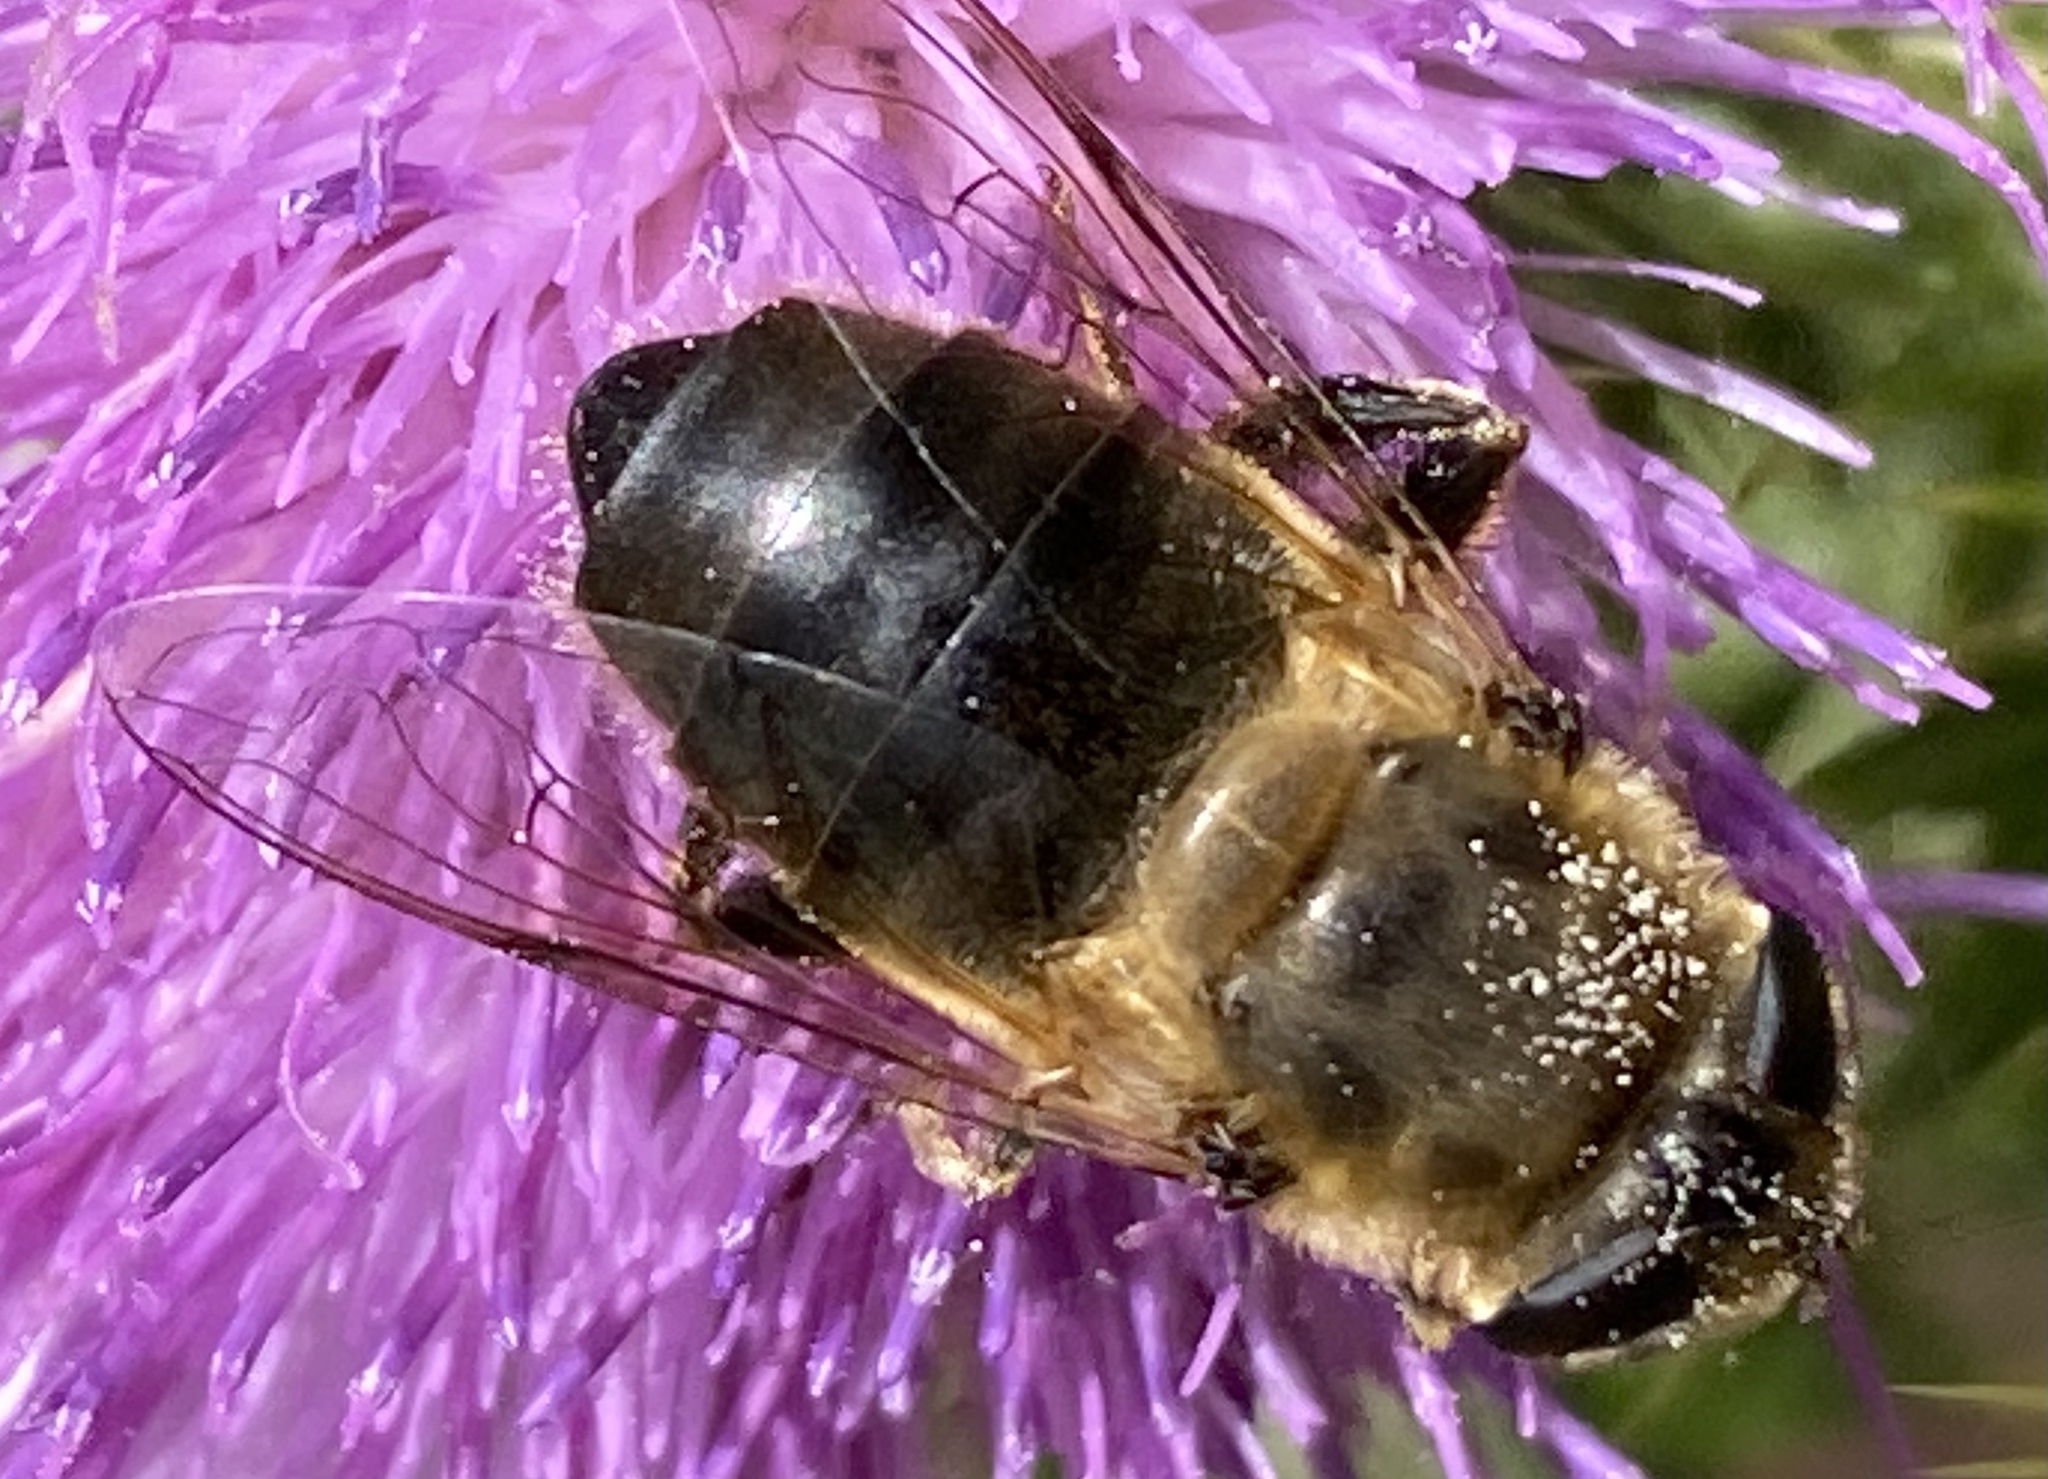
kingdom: Animalia
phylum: Arthropoda
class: Insecta
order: Diptera
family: Syrphidae
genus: Eristalis
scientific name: Eristalis tenax
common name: Drone fly
